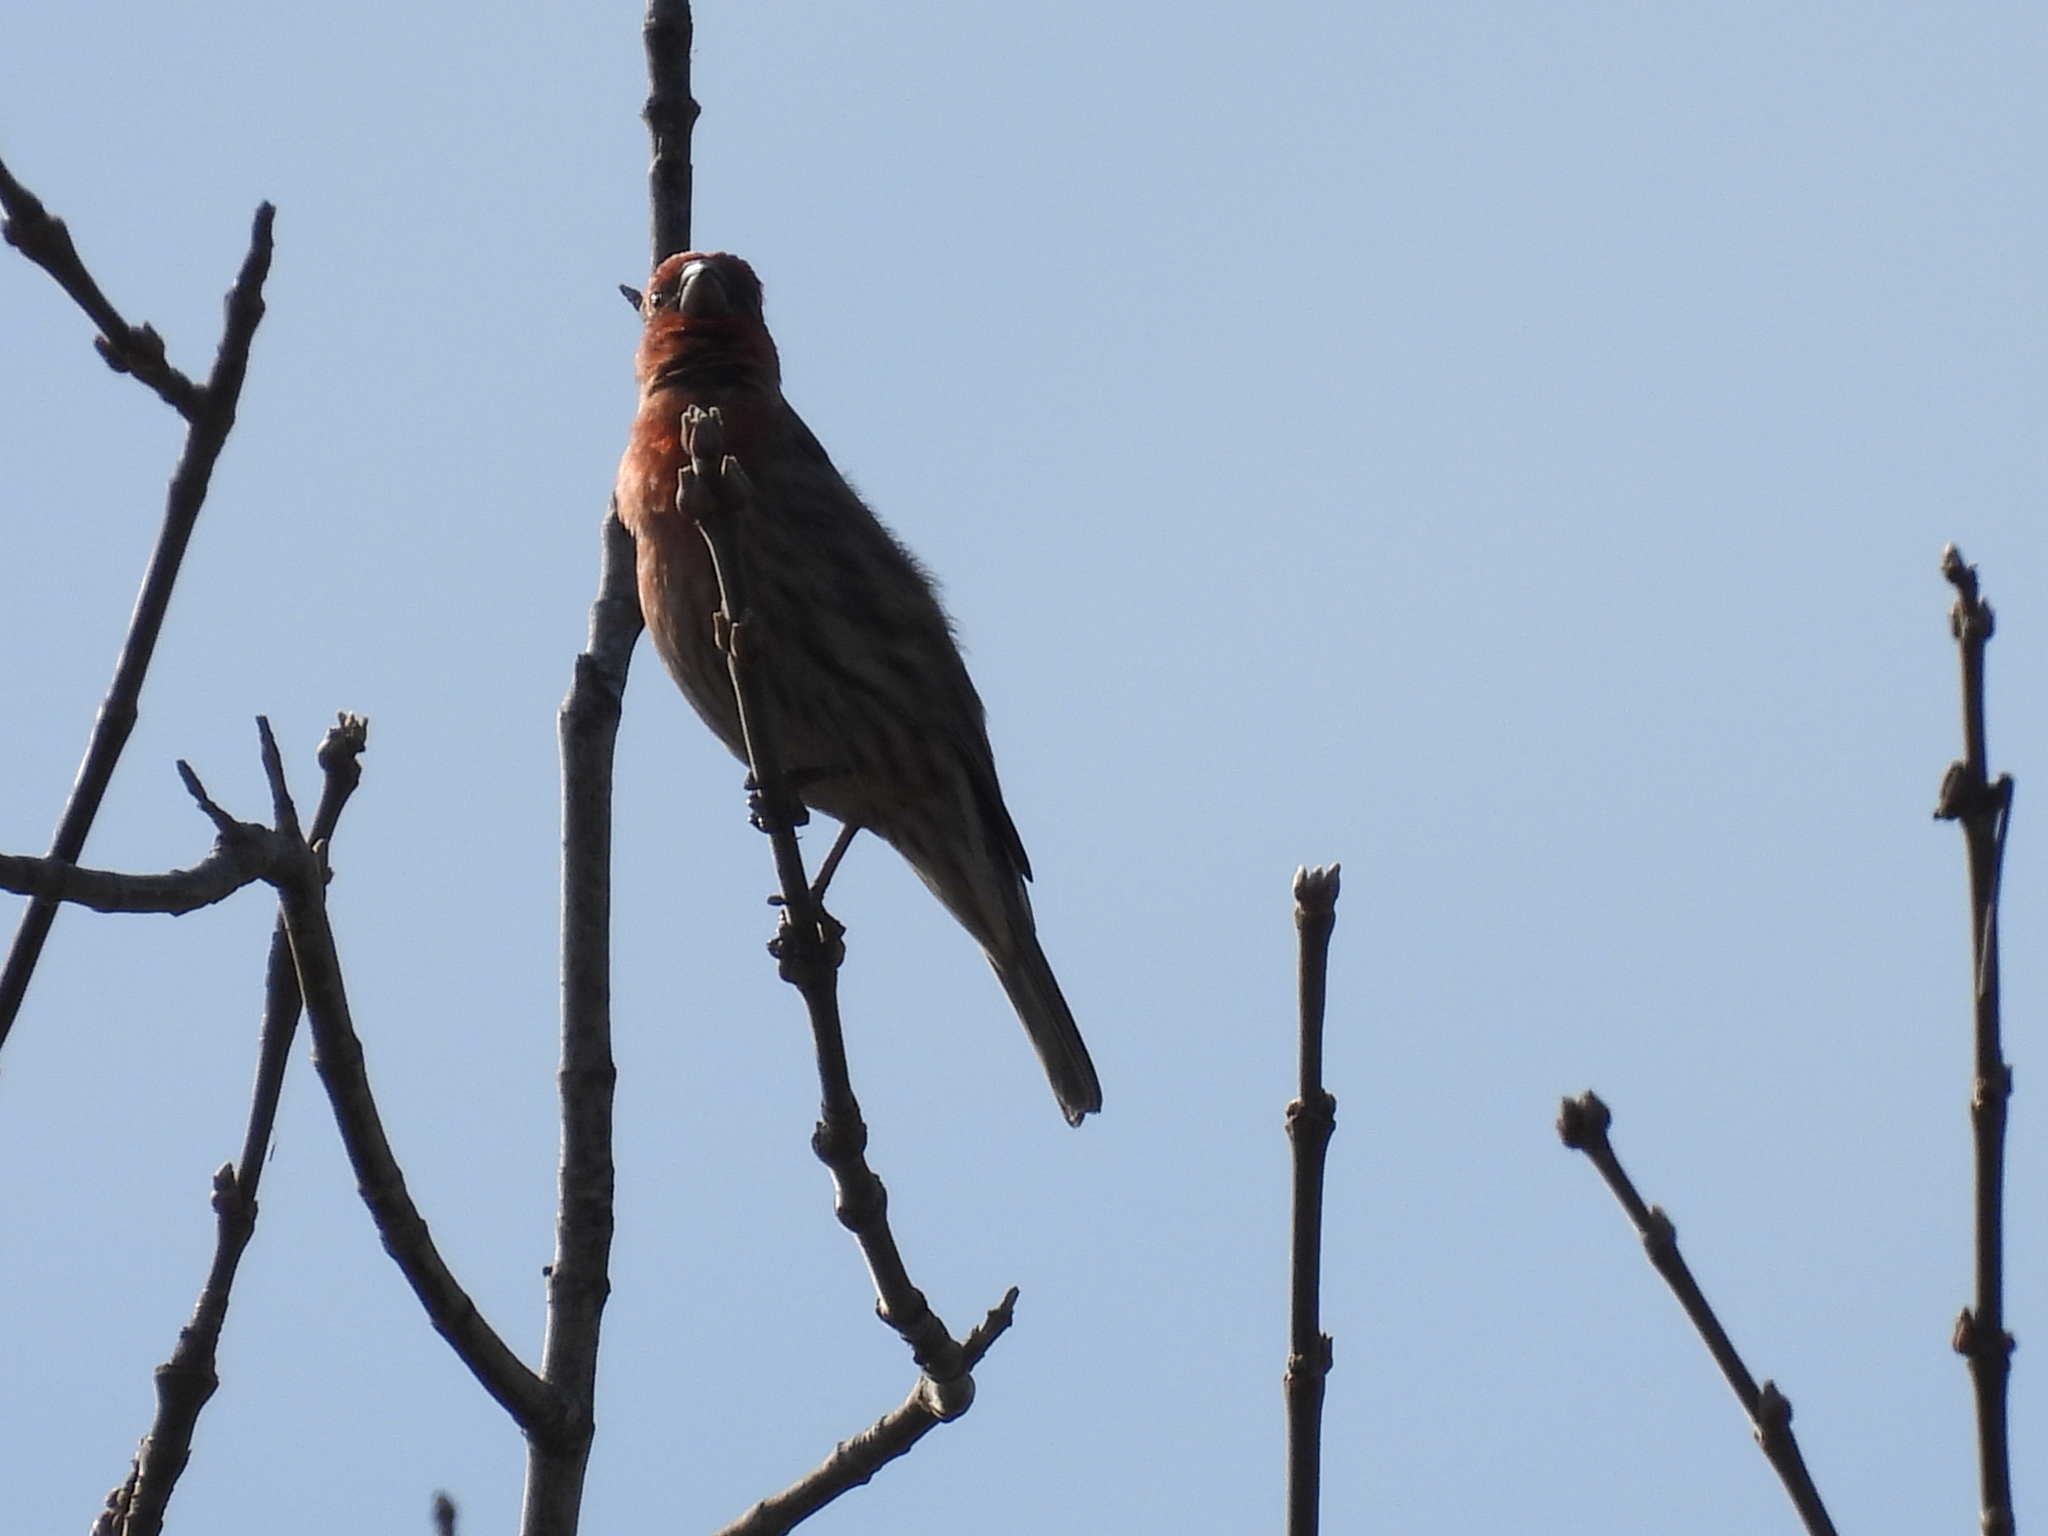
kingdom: Animalia
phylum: Chordata
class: Aves
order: Passeriformes
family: Fringillidae
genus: Haemorhous
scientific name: Haemorhous mexicanus
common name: House finch
